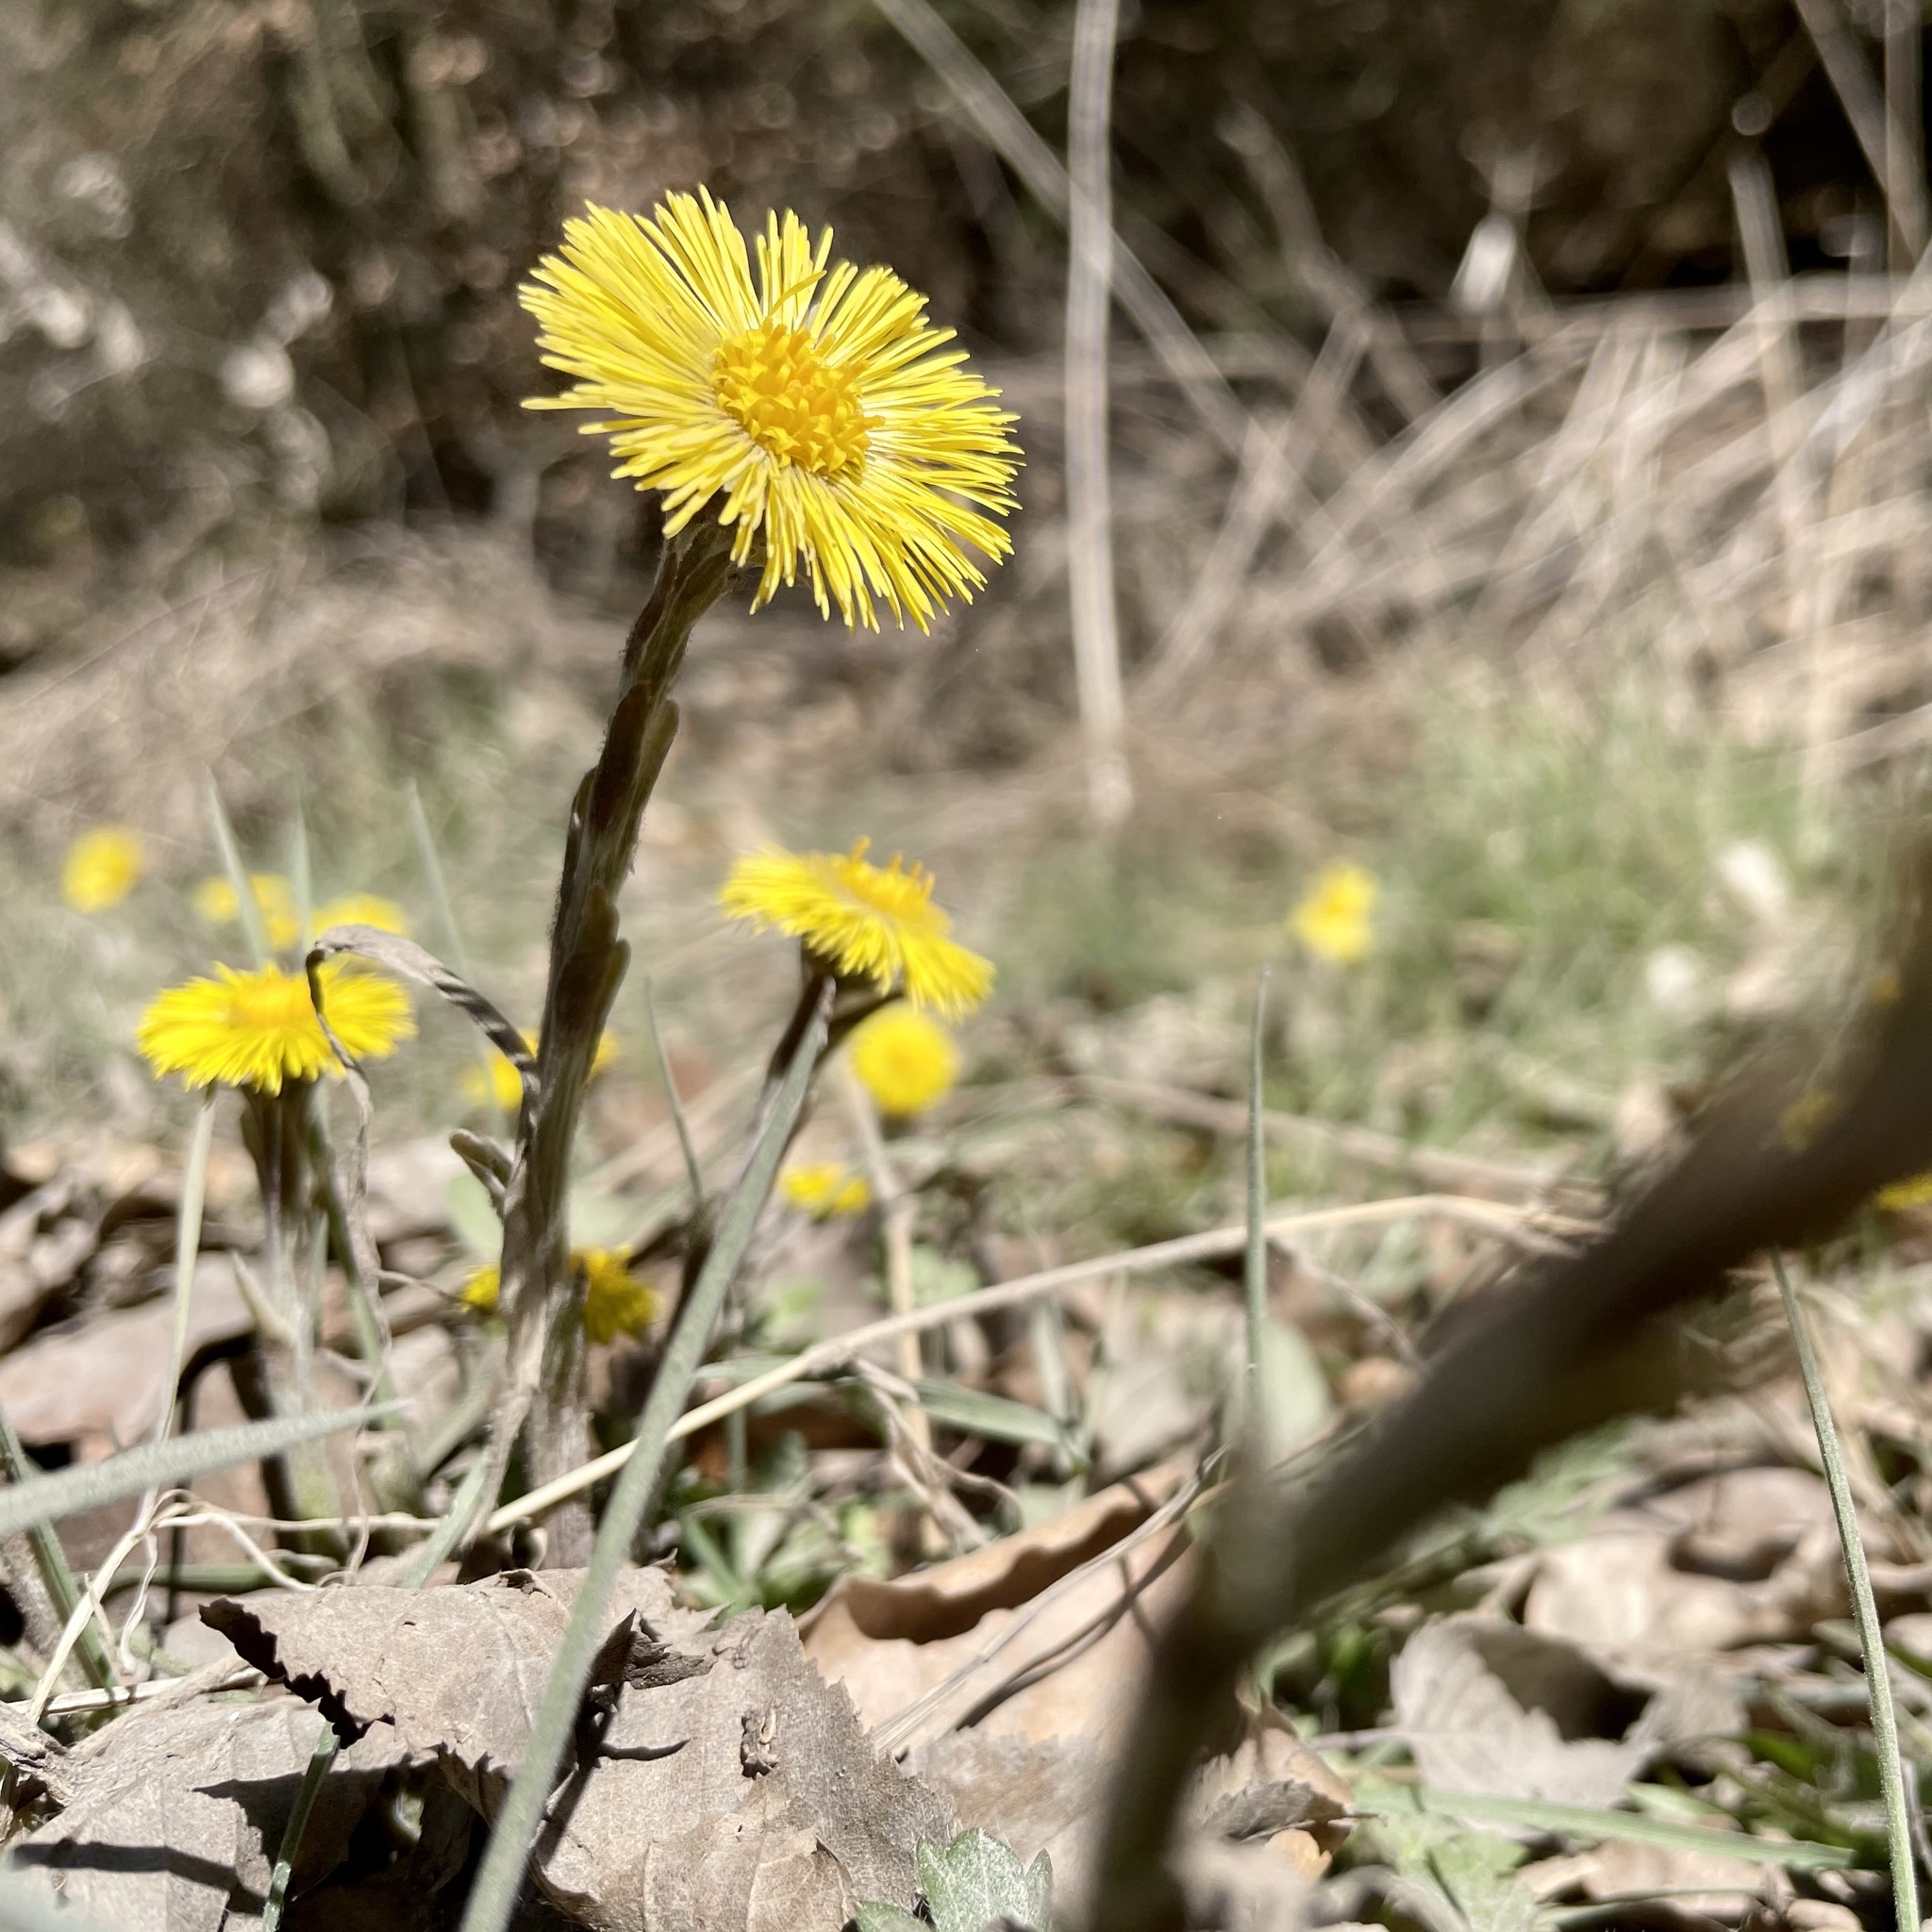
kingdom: Plantae
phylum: Tracheophyta
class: Magnoliopsida
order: Asterales
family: Asteraceae
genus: Tussilago
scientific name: Tussilago farfara
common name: Coltsfoot
